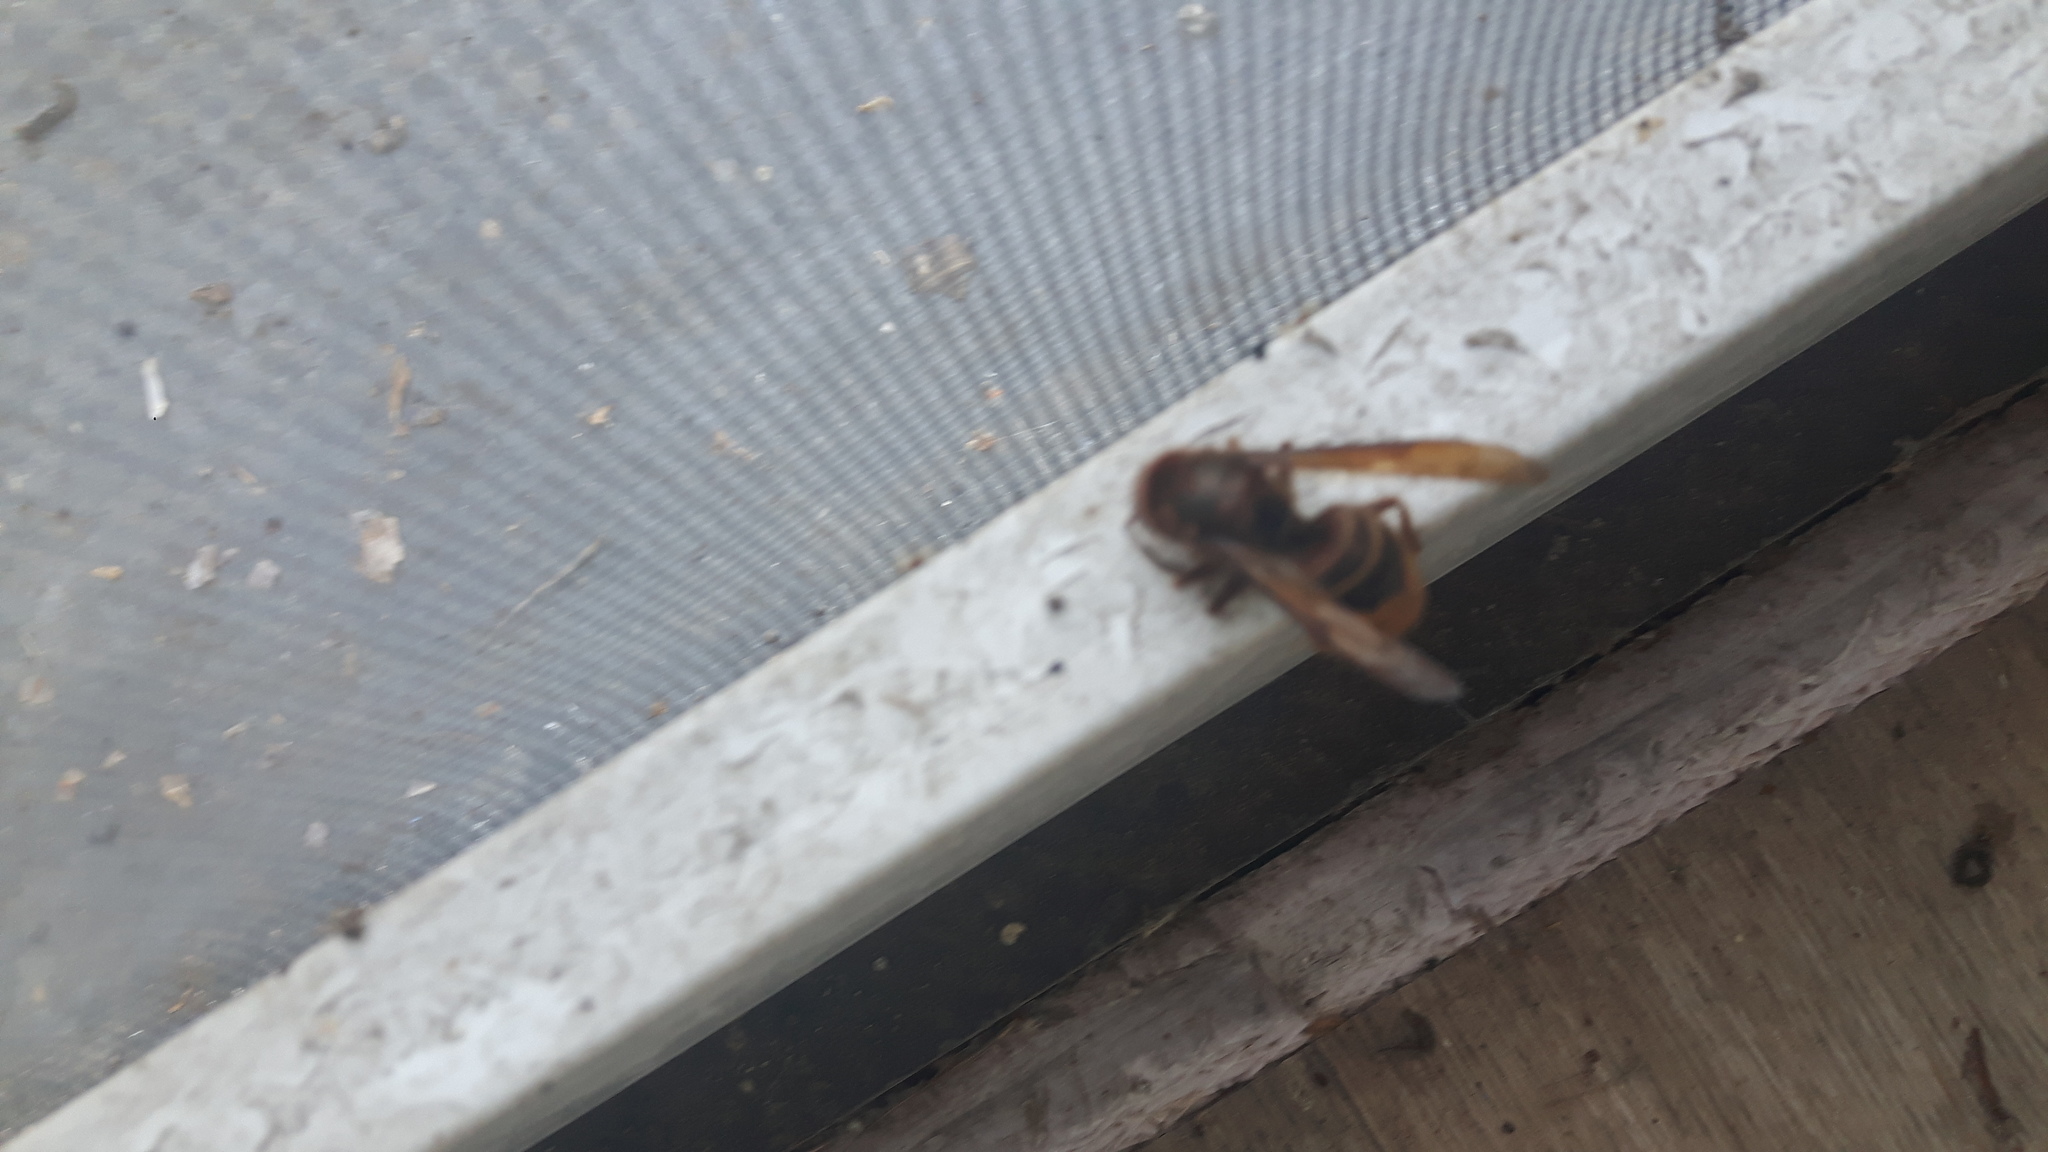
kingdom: Animalia
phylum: Arthropoda
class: Insecta
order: Hymenoptera
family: Vespidae
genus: Vespa
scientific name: Vespa crabro
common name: Hornet
